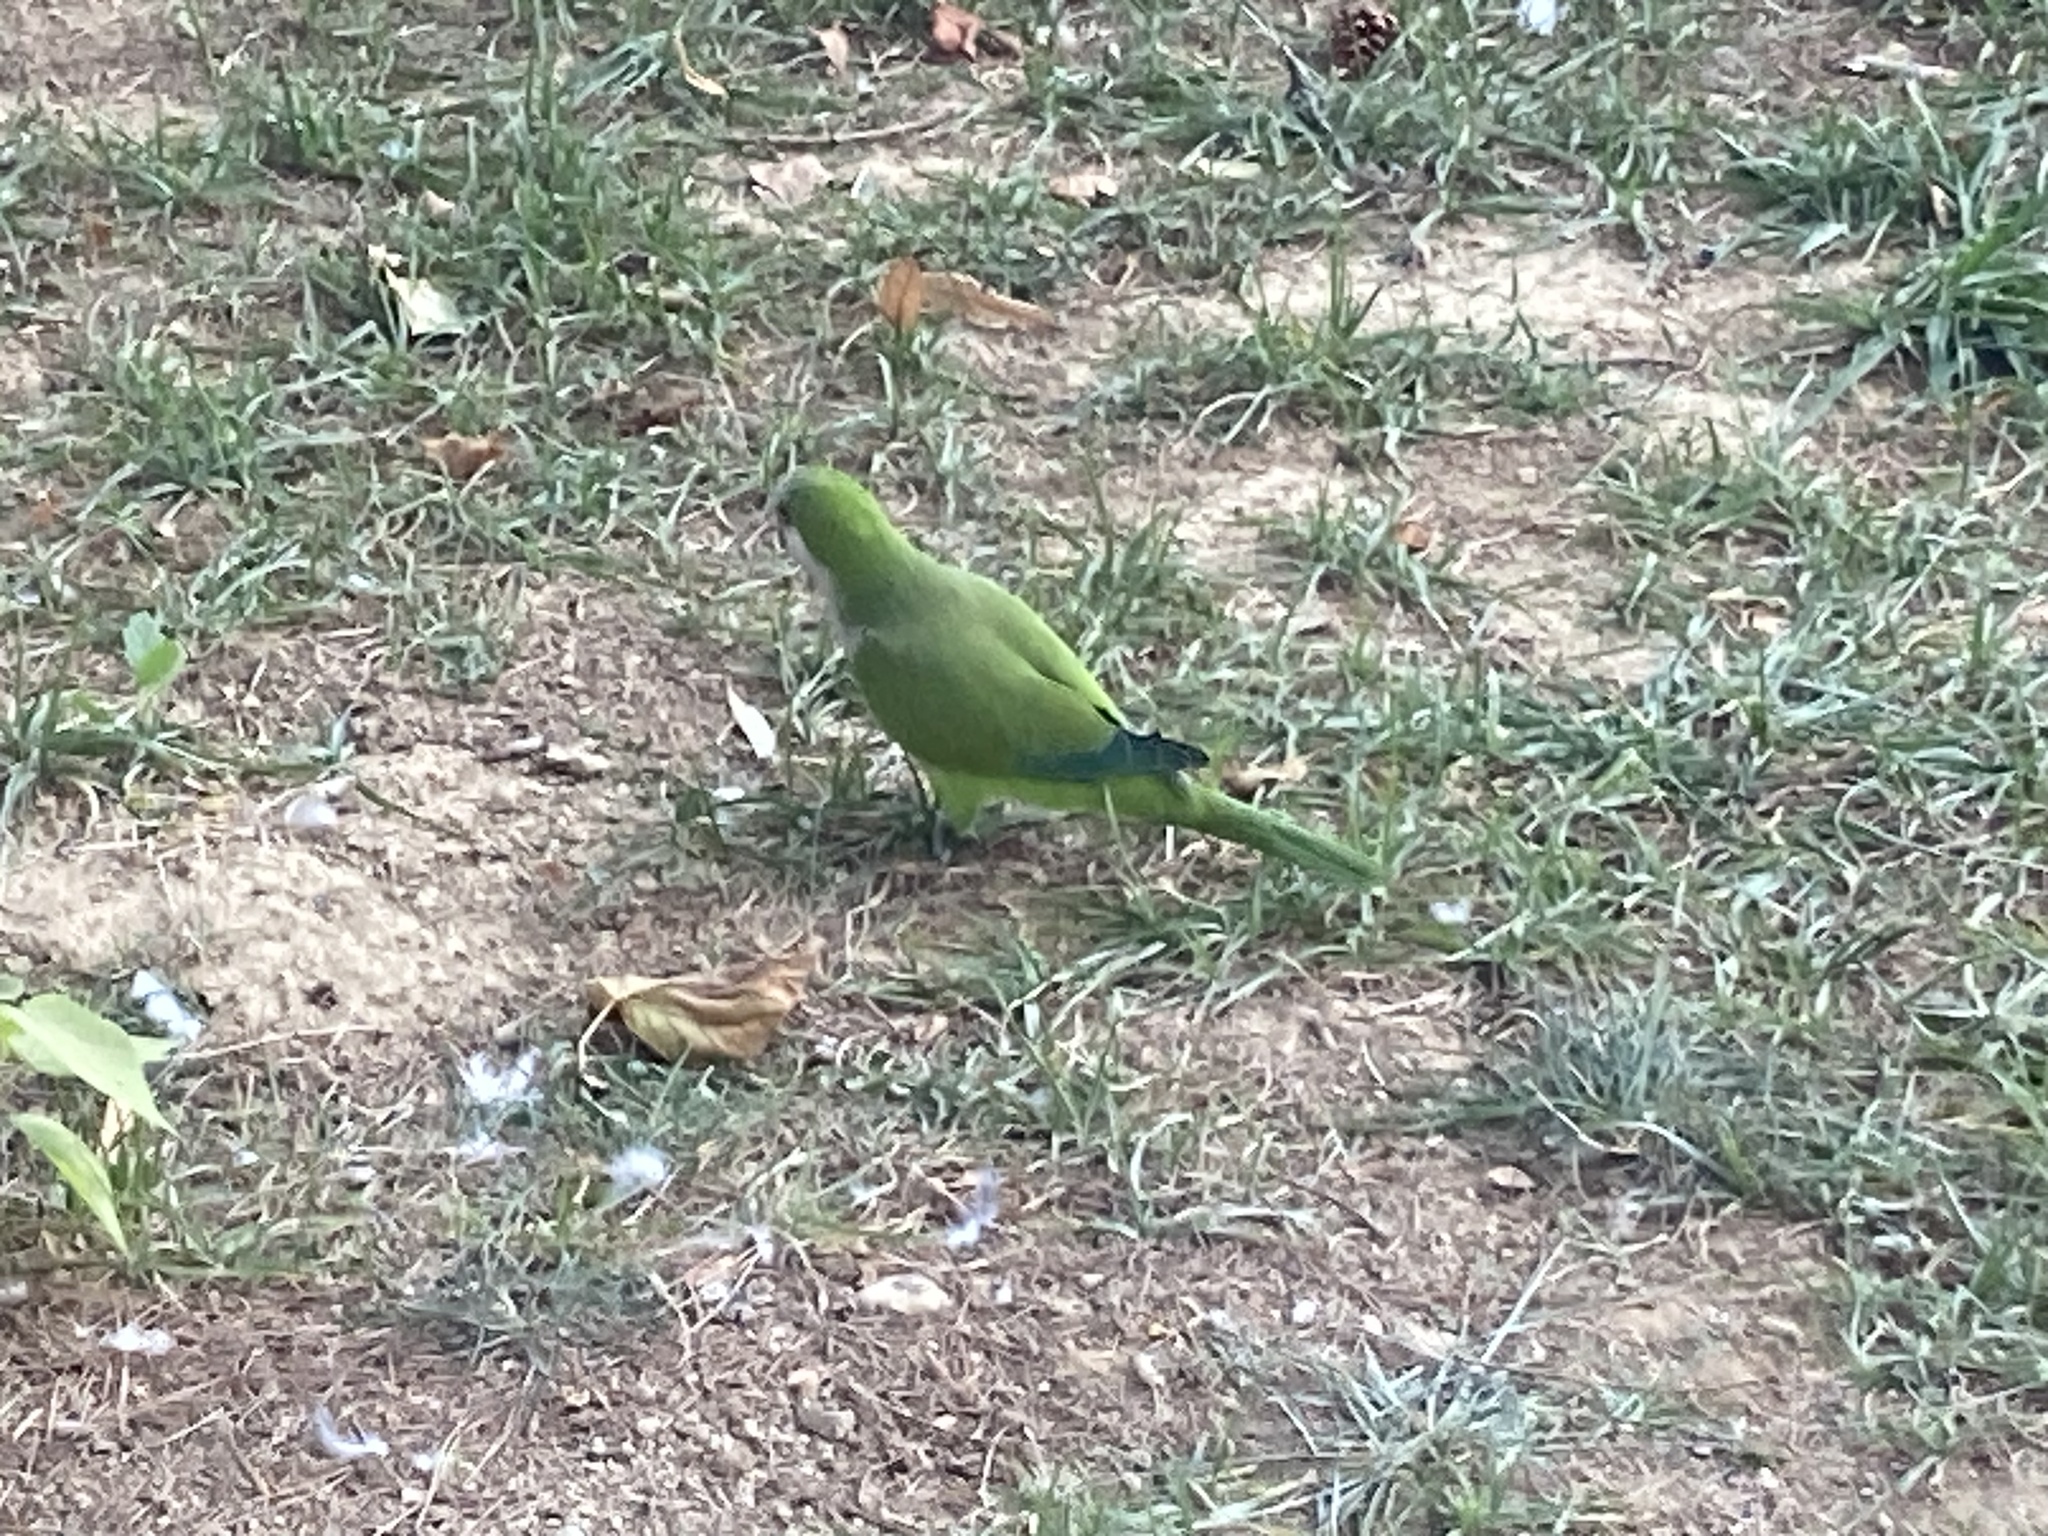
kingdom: Animalia
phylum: Chordata
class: Aves
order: Psittaciformes
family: Psittacidae
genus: Myiopsitta
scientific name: Myiopsitta monachus
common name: Monk parakeet
